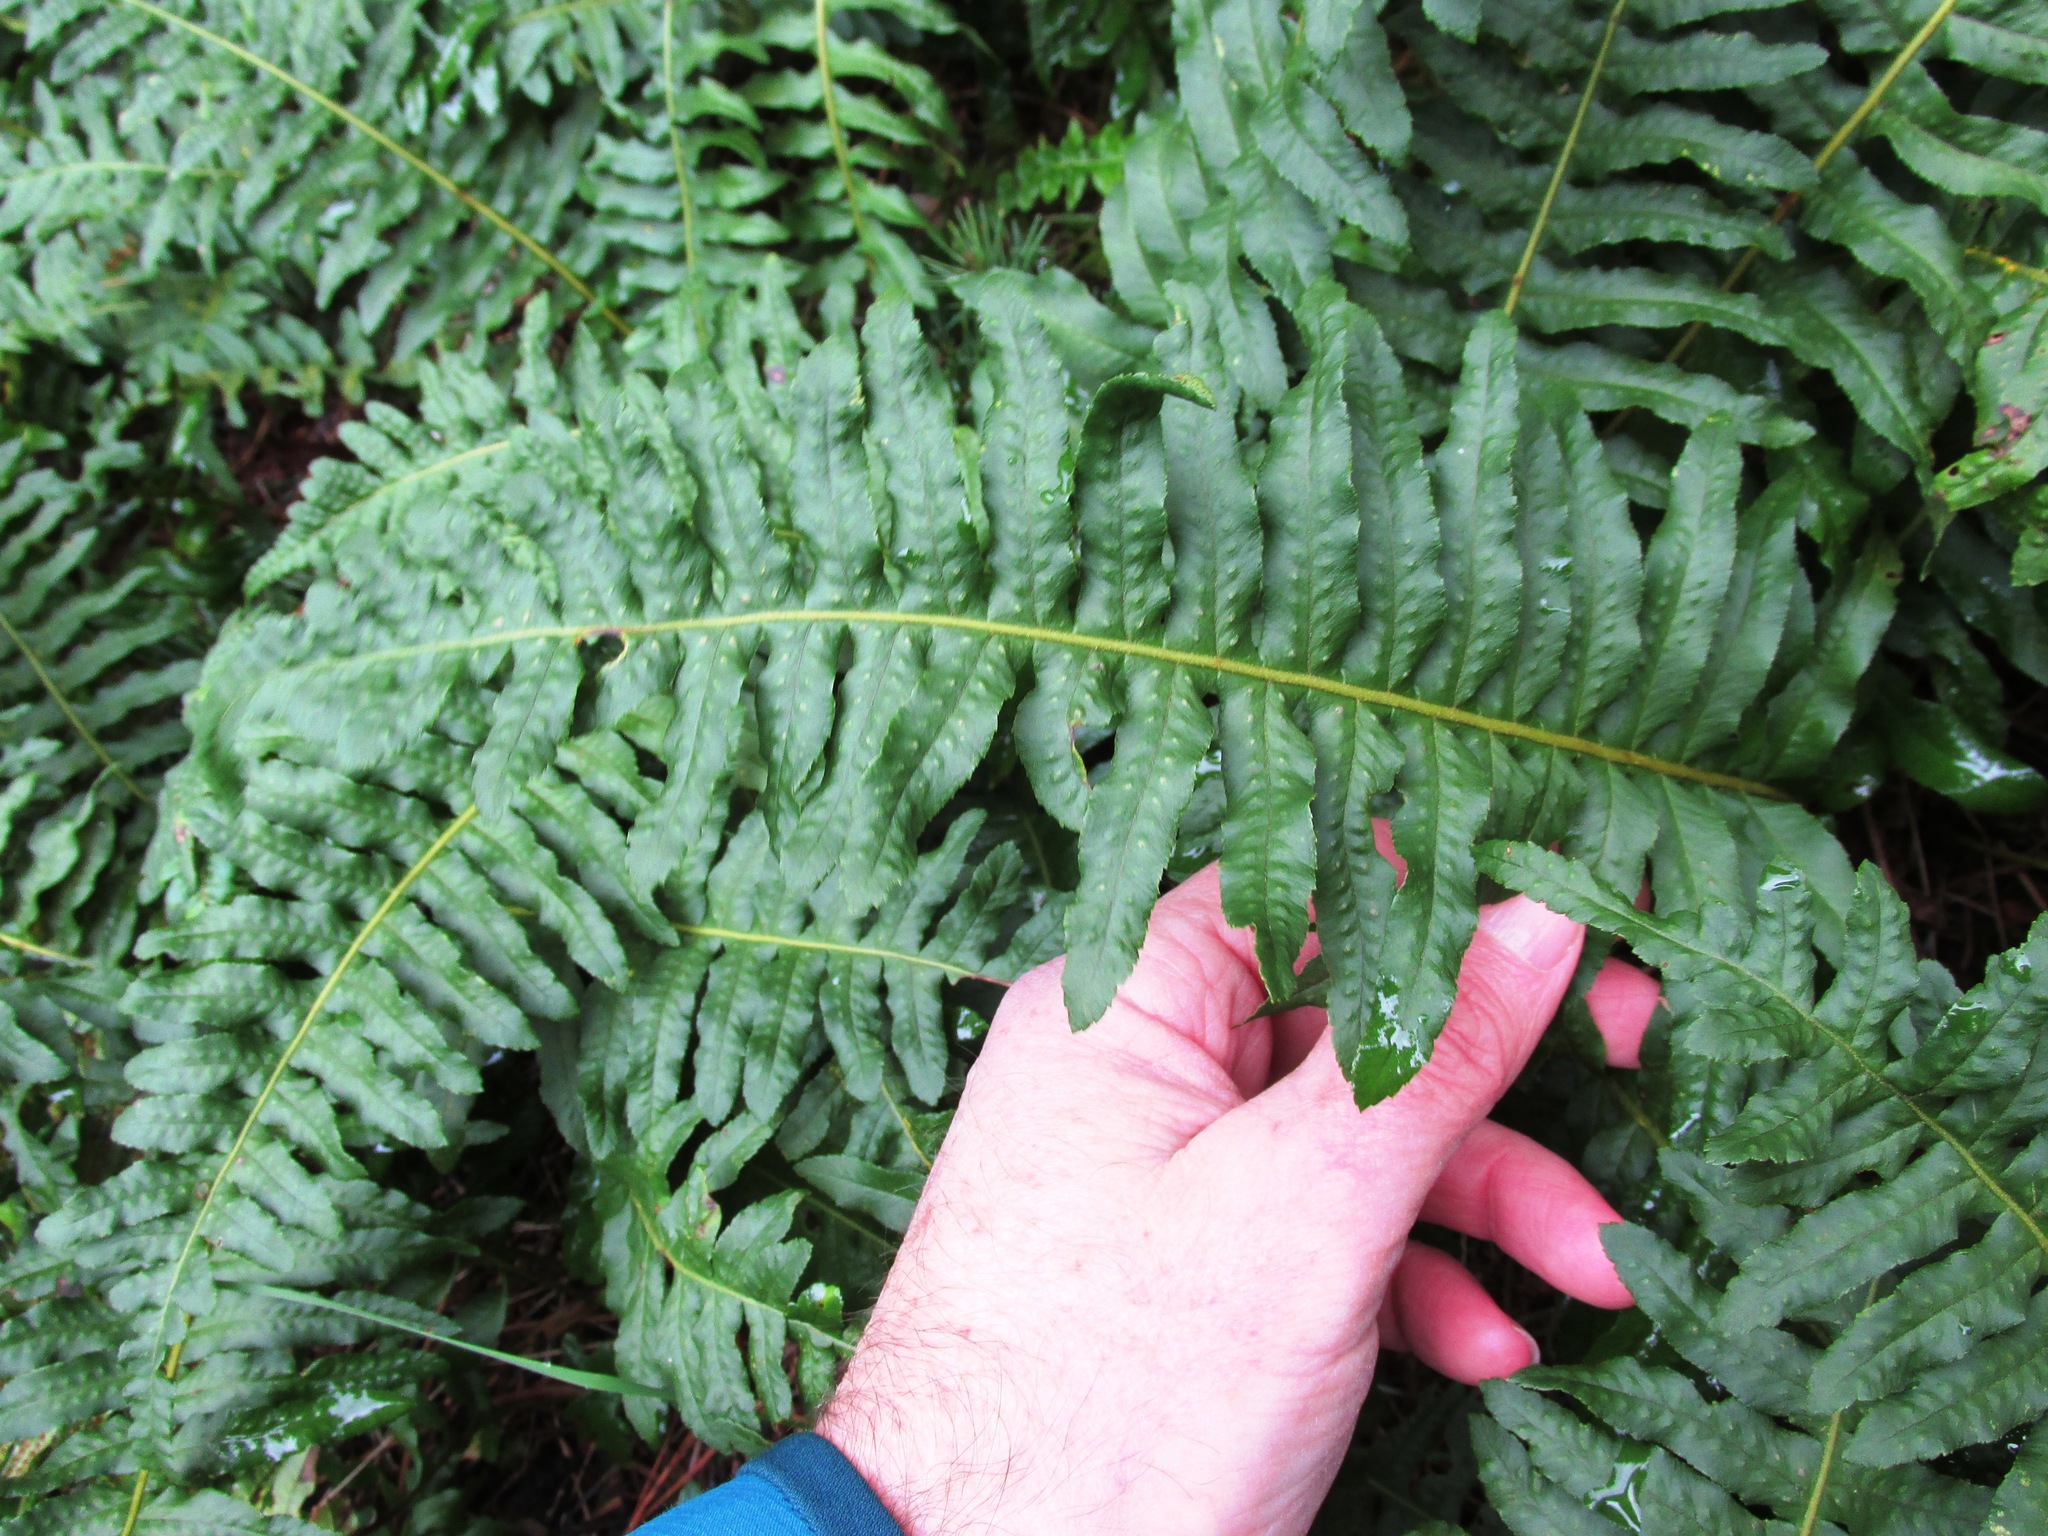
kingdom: Plantae
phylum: Tracheophyta
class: Polypodiopsida
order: Polypodiales
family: Polypodiaceae
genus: Polypodium
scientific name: Polypodium glycyrrhiza
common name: Licorice fern
